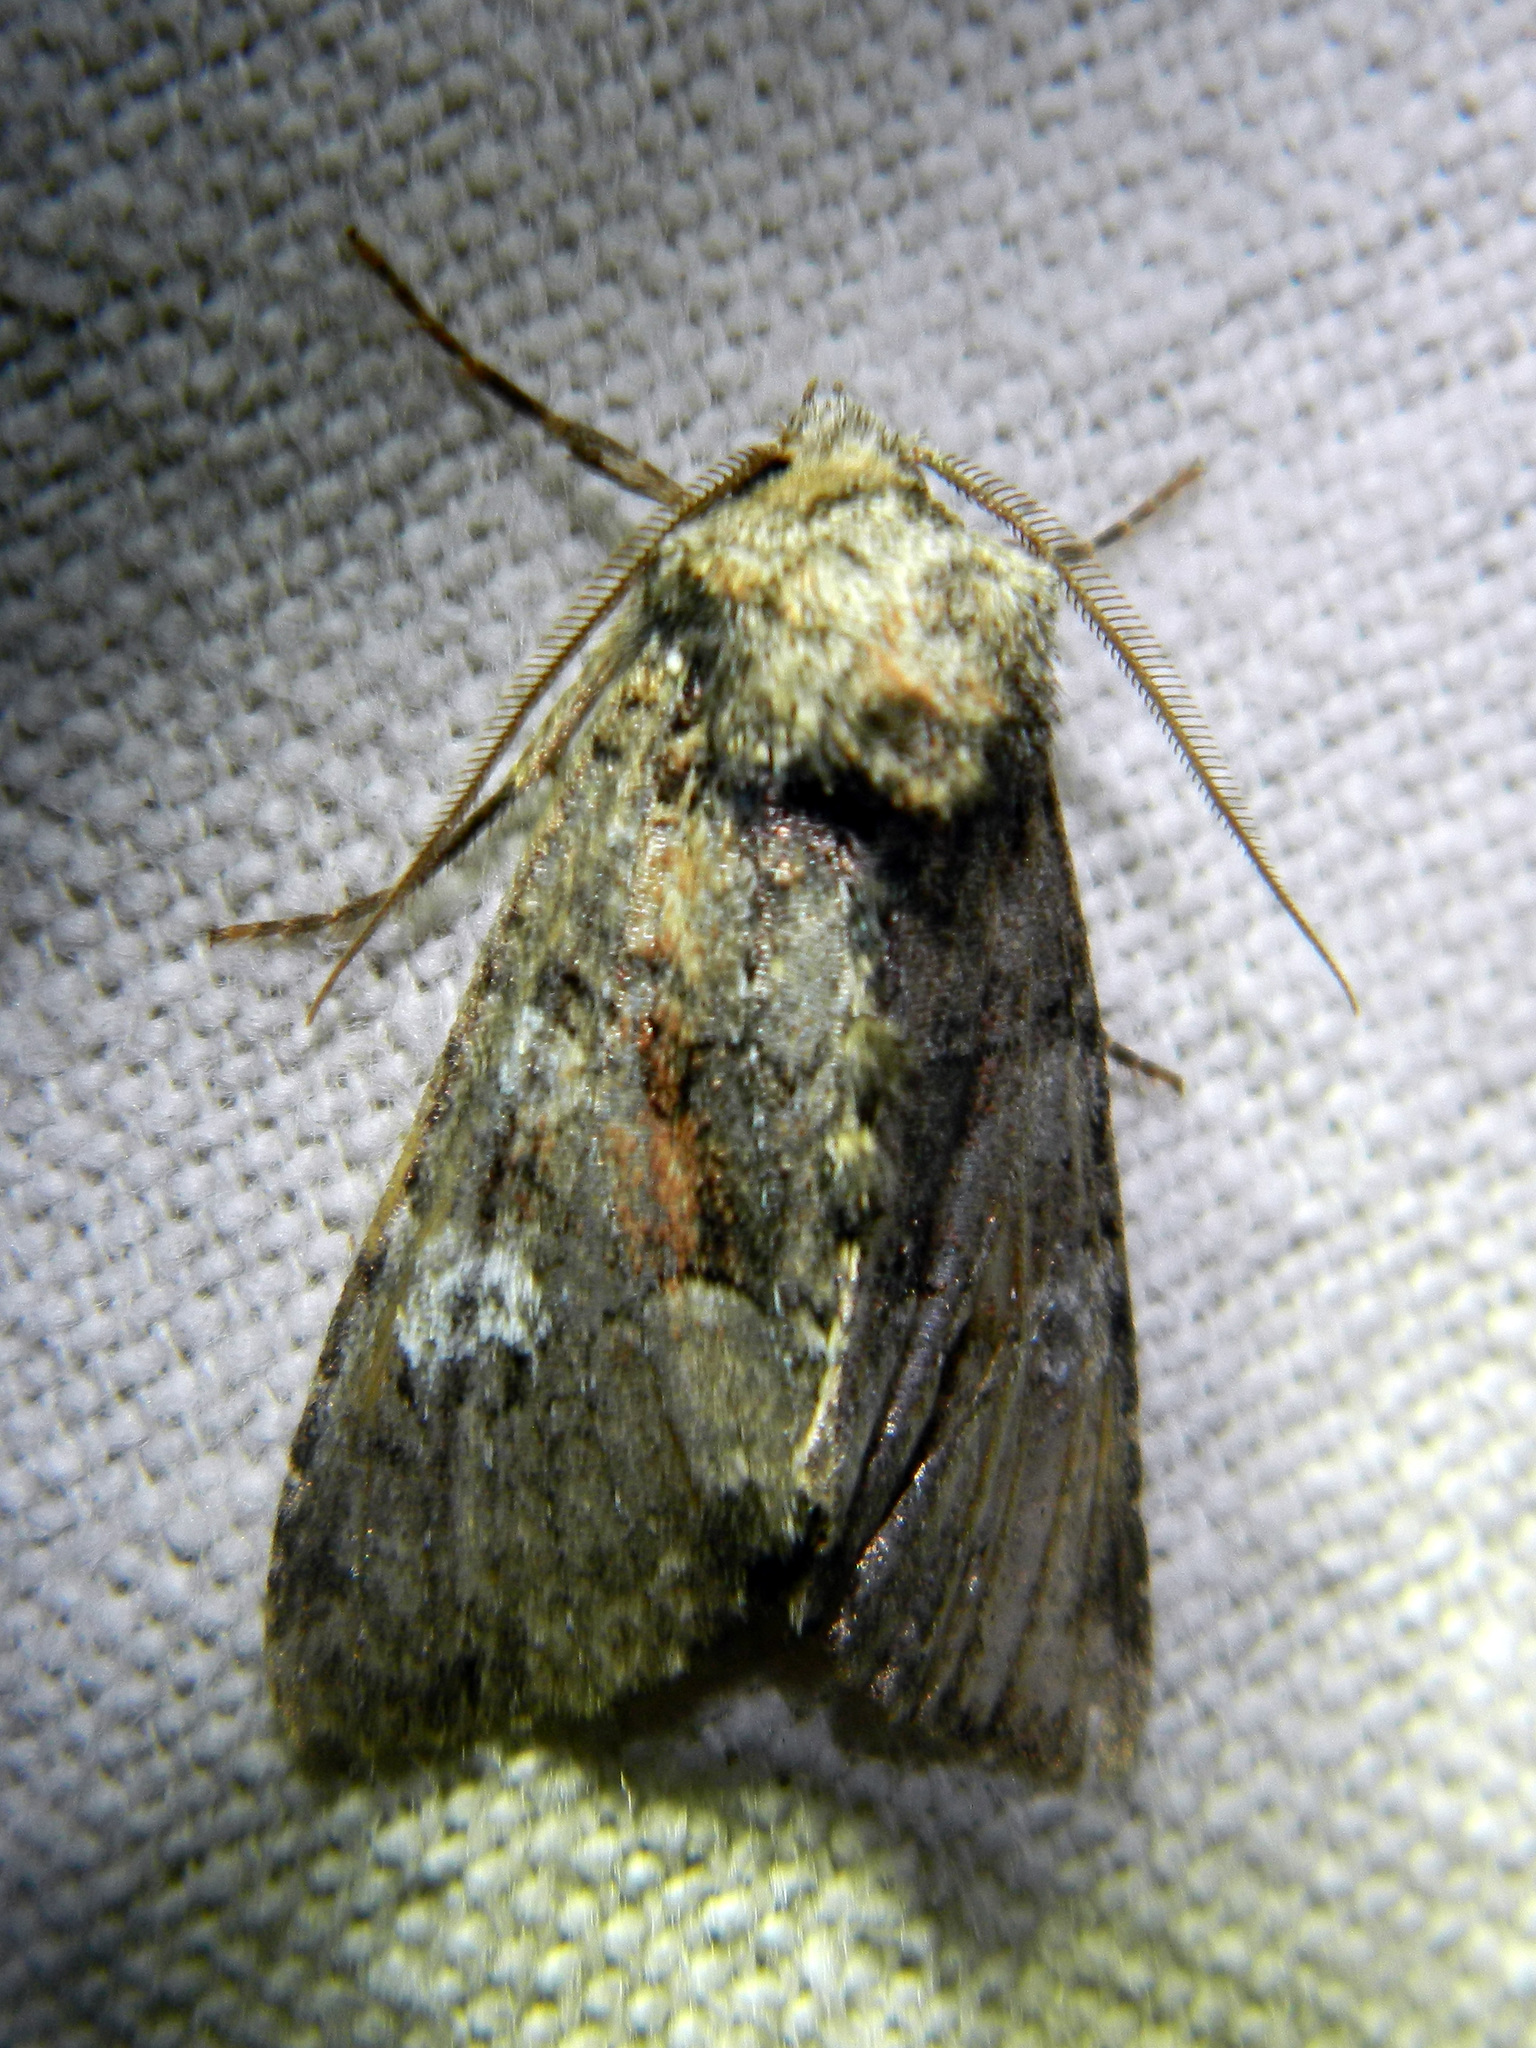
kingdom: Animalia
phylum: Arthropoda
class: Insecta
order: Lepidoptera
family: Noctuidae
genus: Fishia
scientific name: Fishia illocata
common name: Wandering brocade moth
